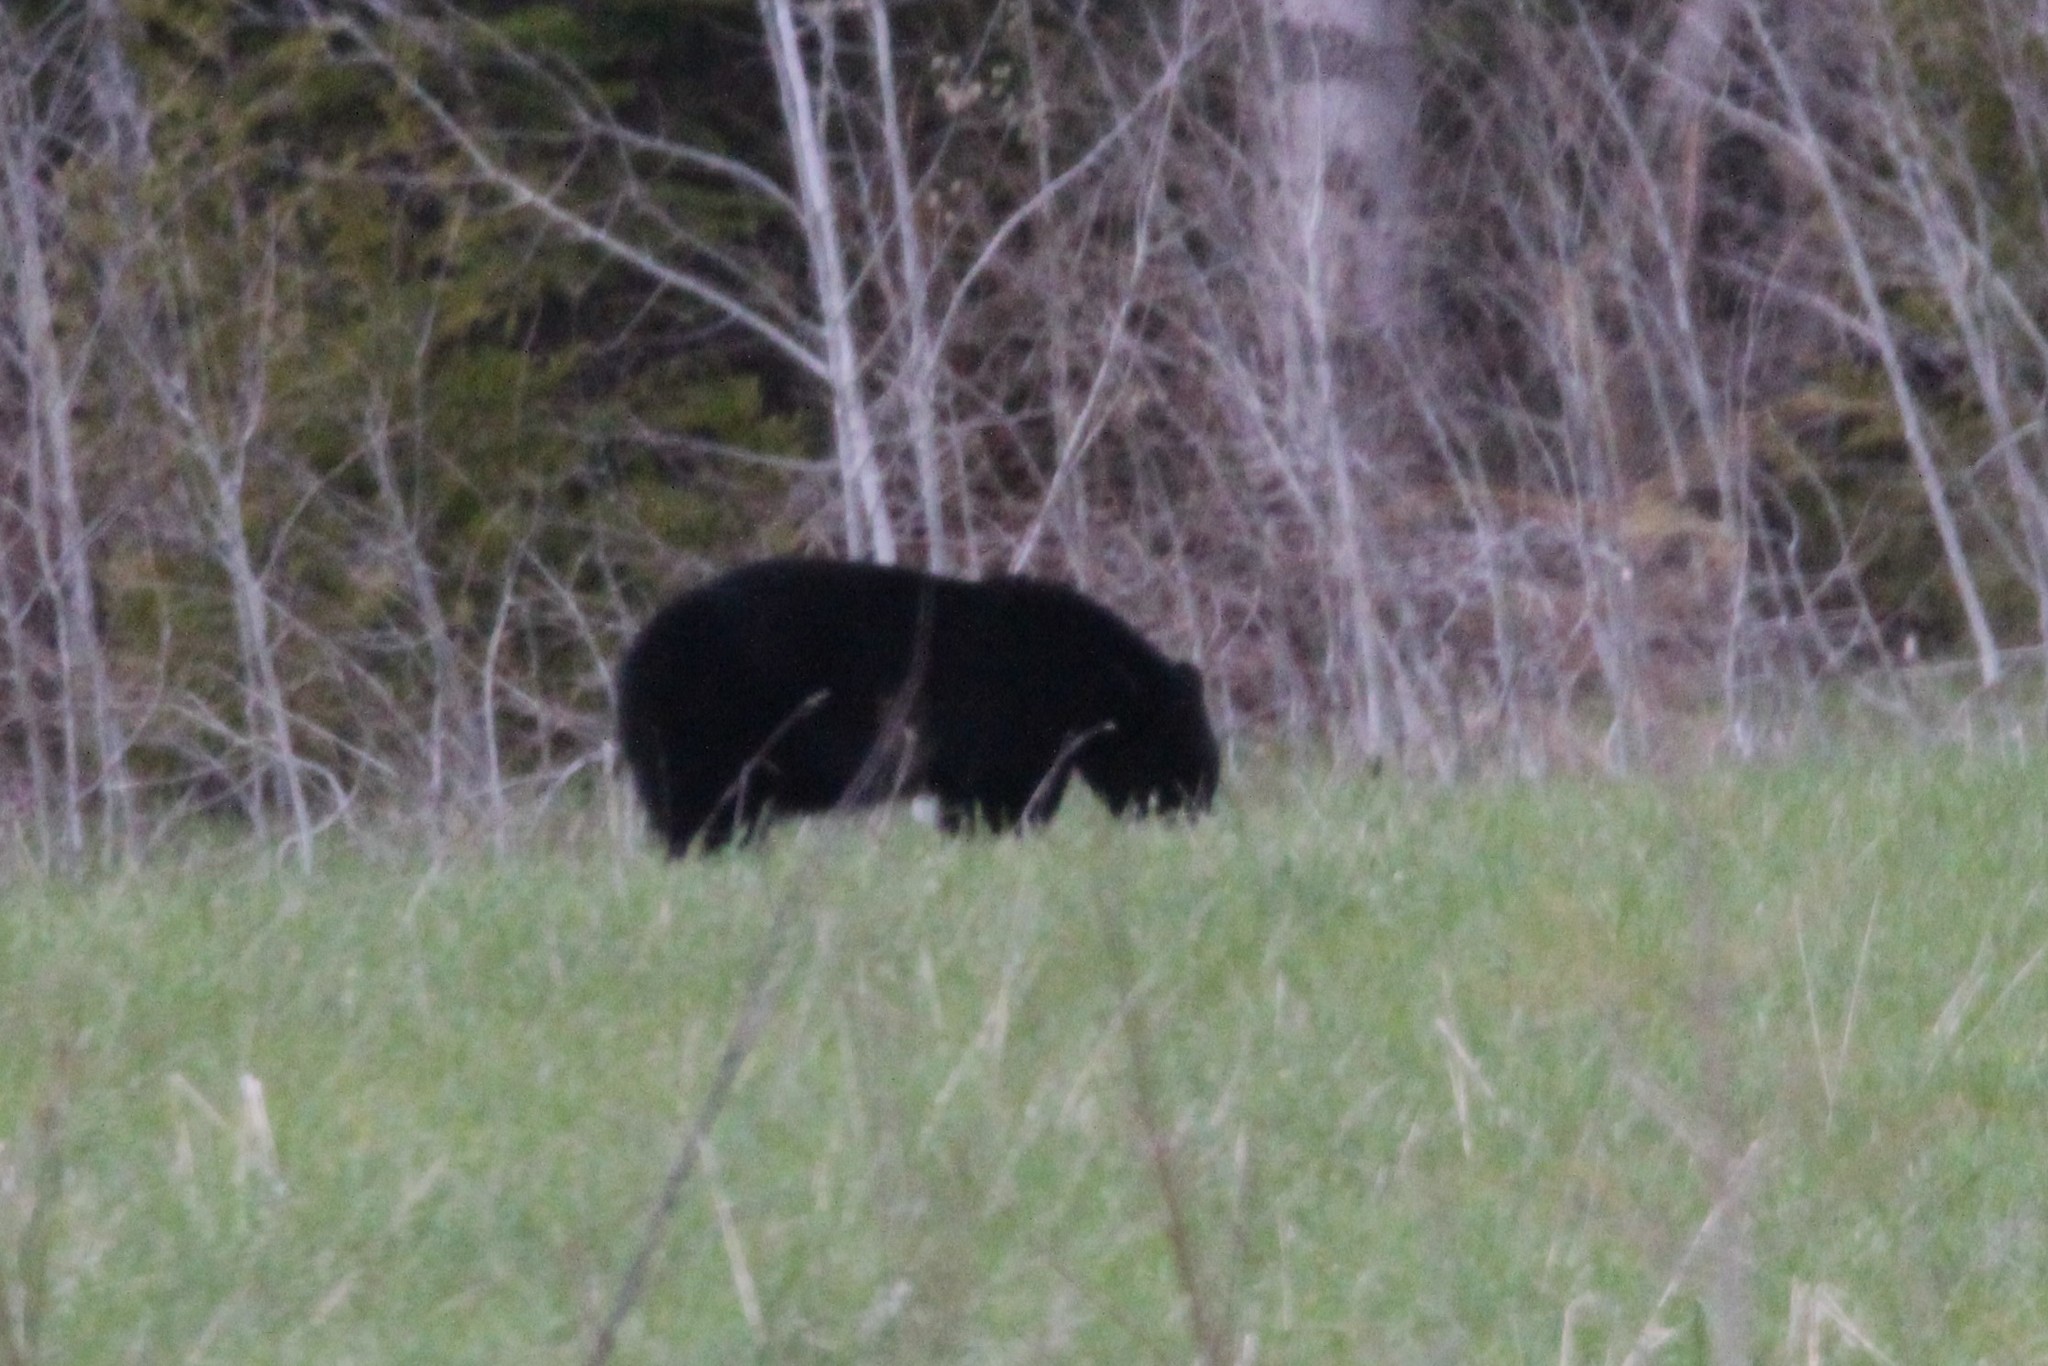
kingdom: Animalia
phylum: Chordata
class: Mammalia
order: Carnivora
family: Ursidae
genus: Ursus
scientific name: Ursus americanus
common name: American black bear
